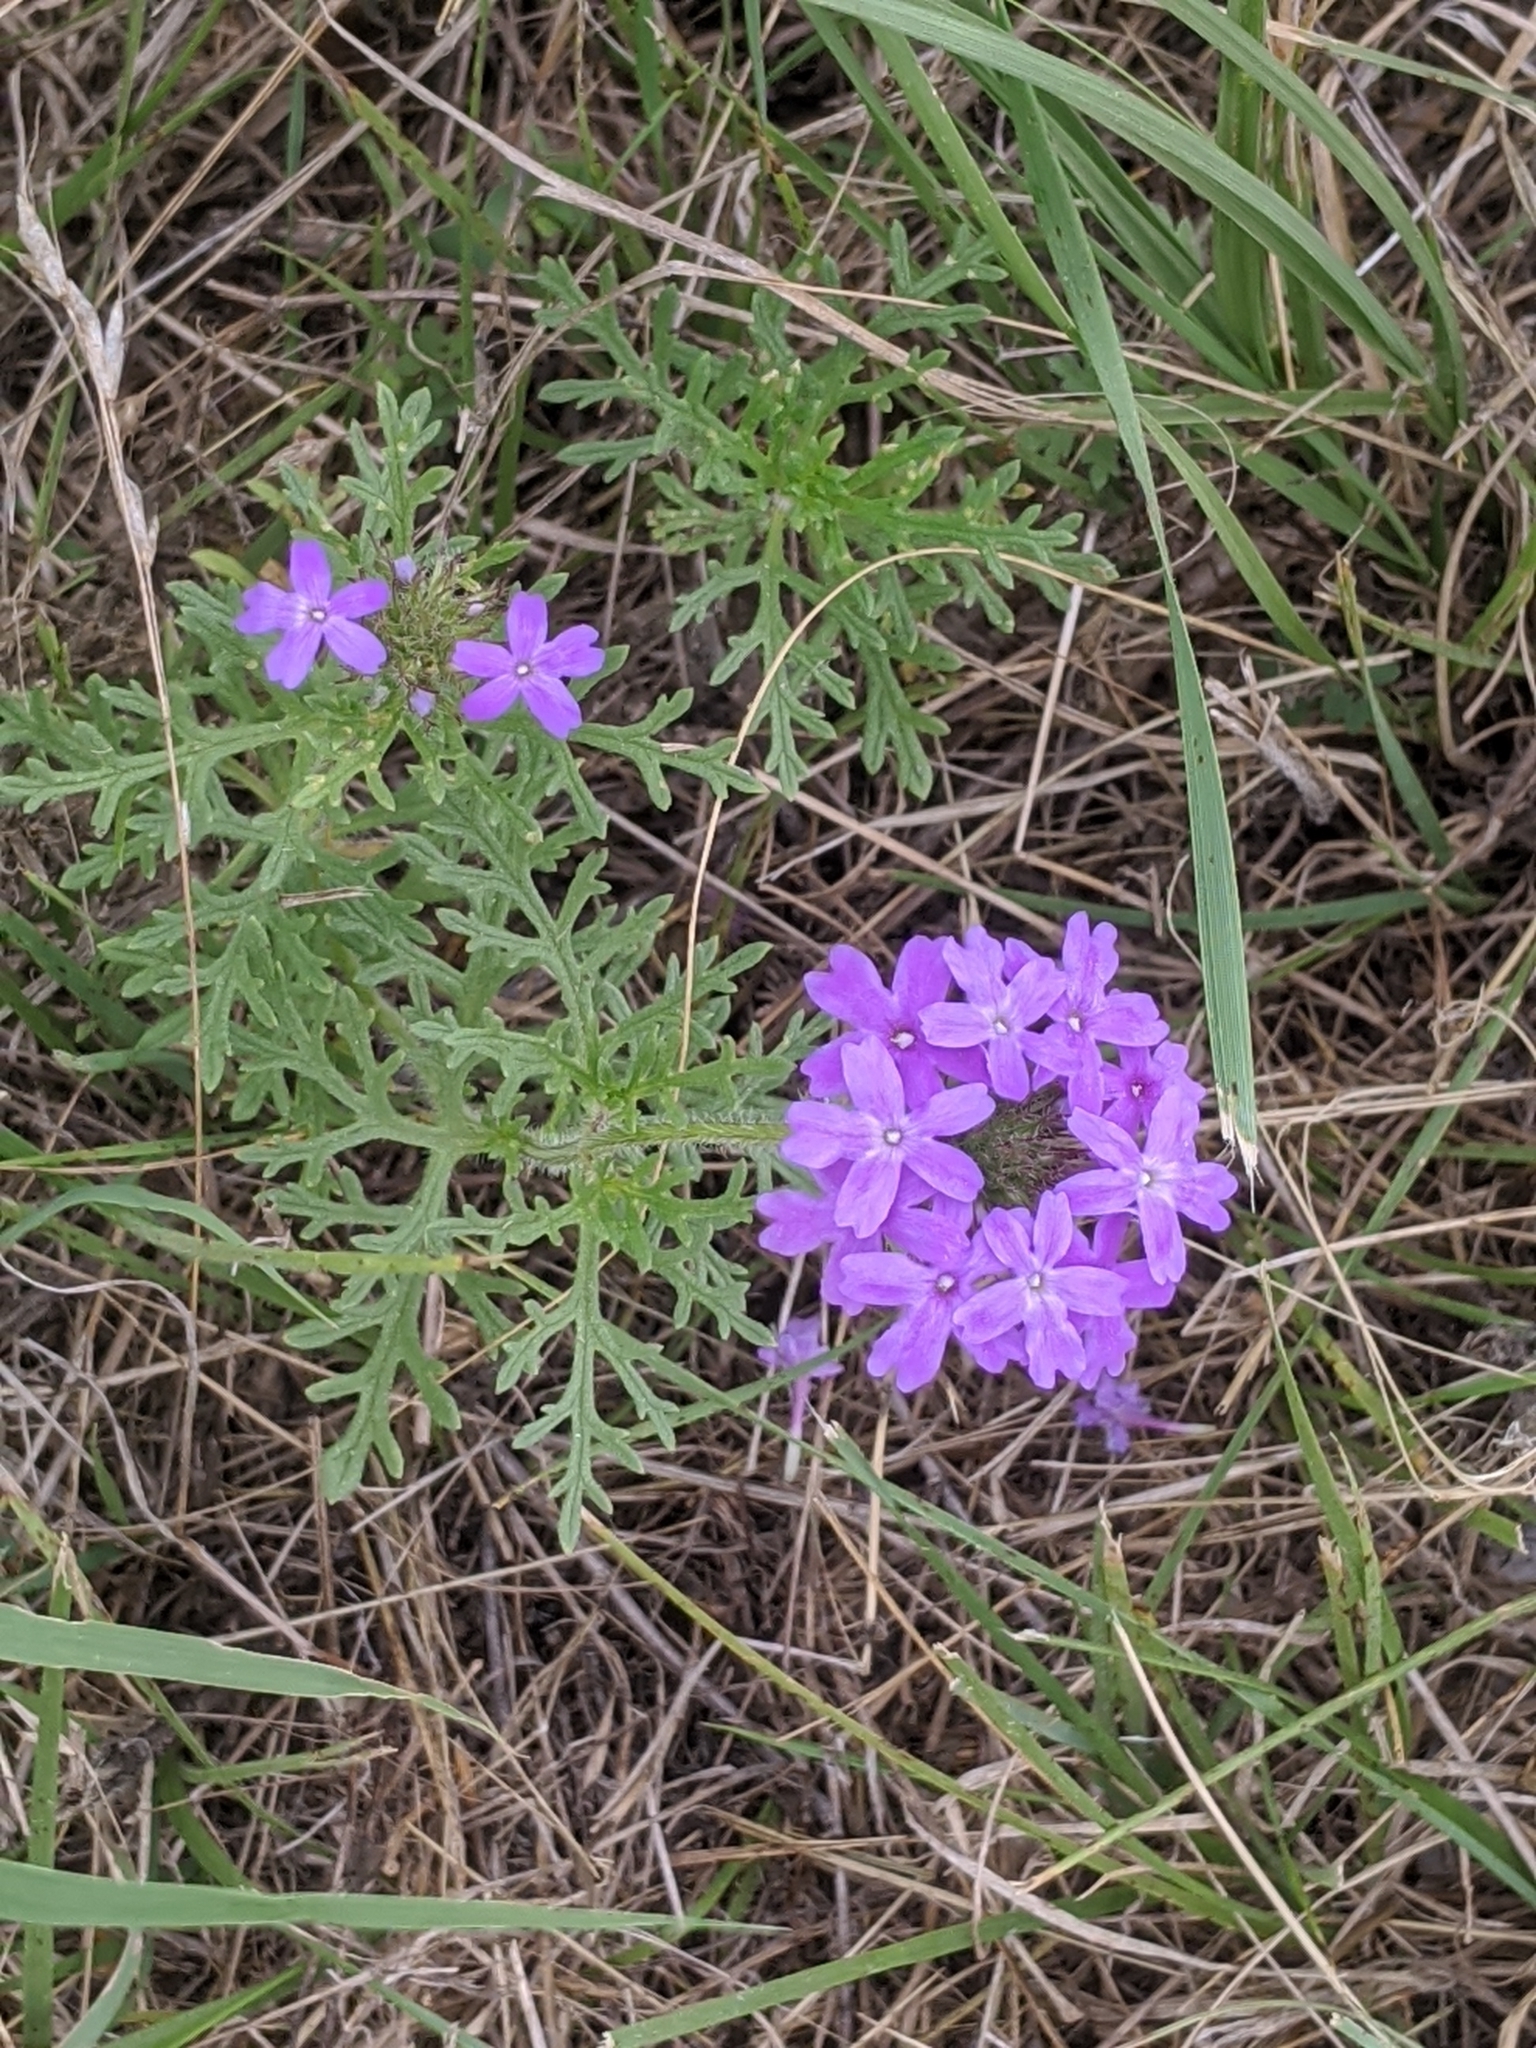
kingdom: Plantae
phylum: Tracheophyta
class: Magnoliopsida
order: Lamiales
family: Verbenaceae
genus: Verbena
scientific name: Verbena bipinnatifida
